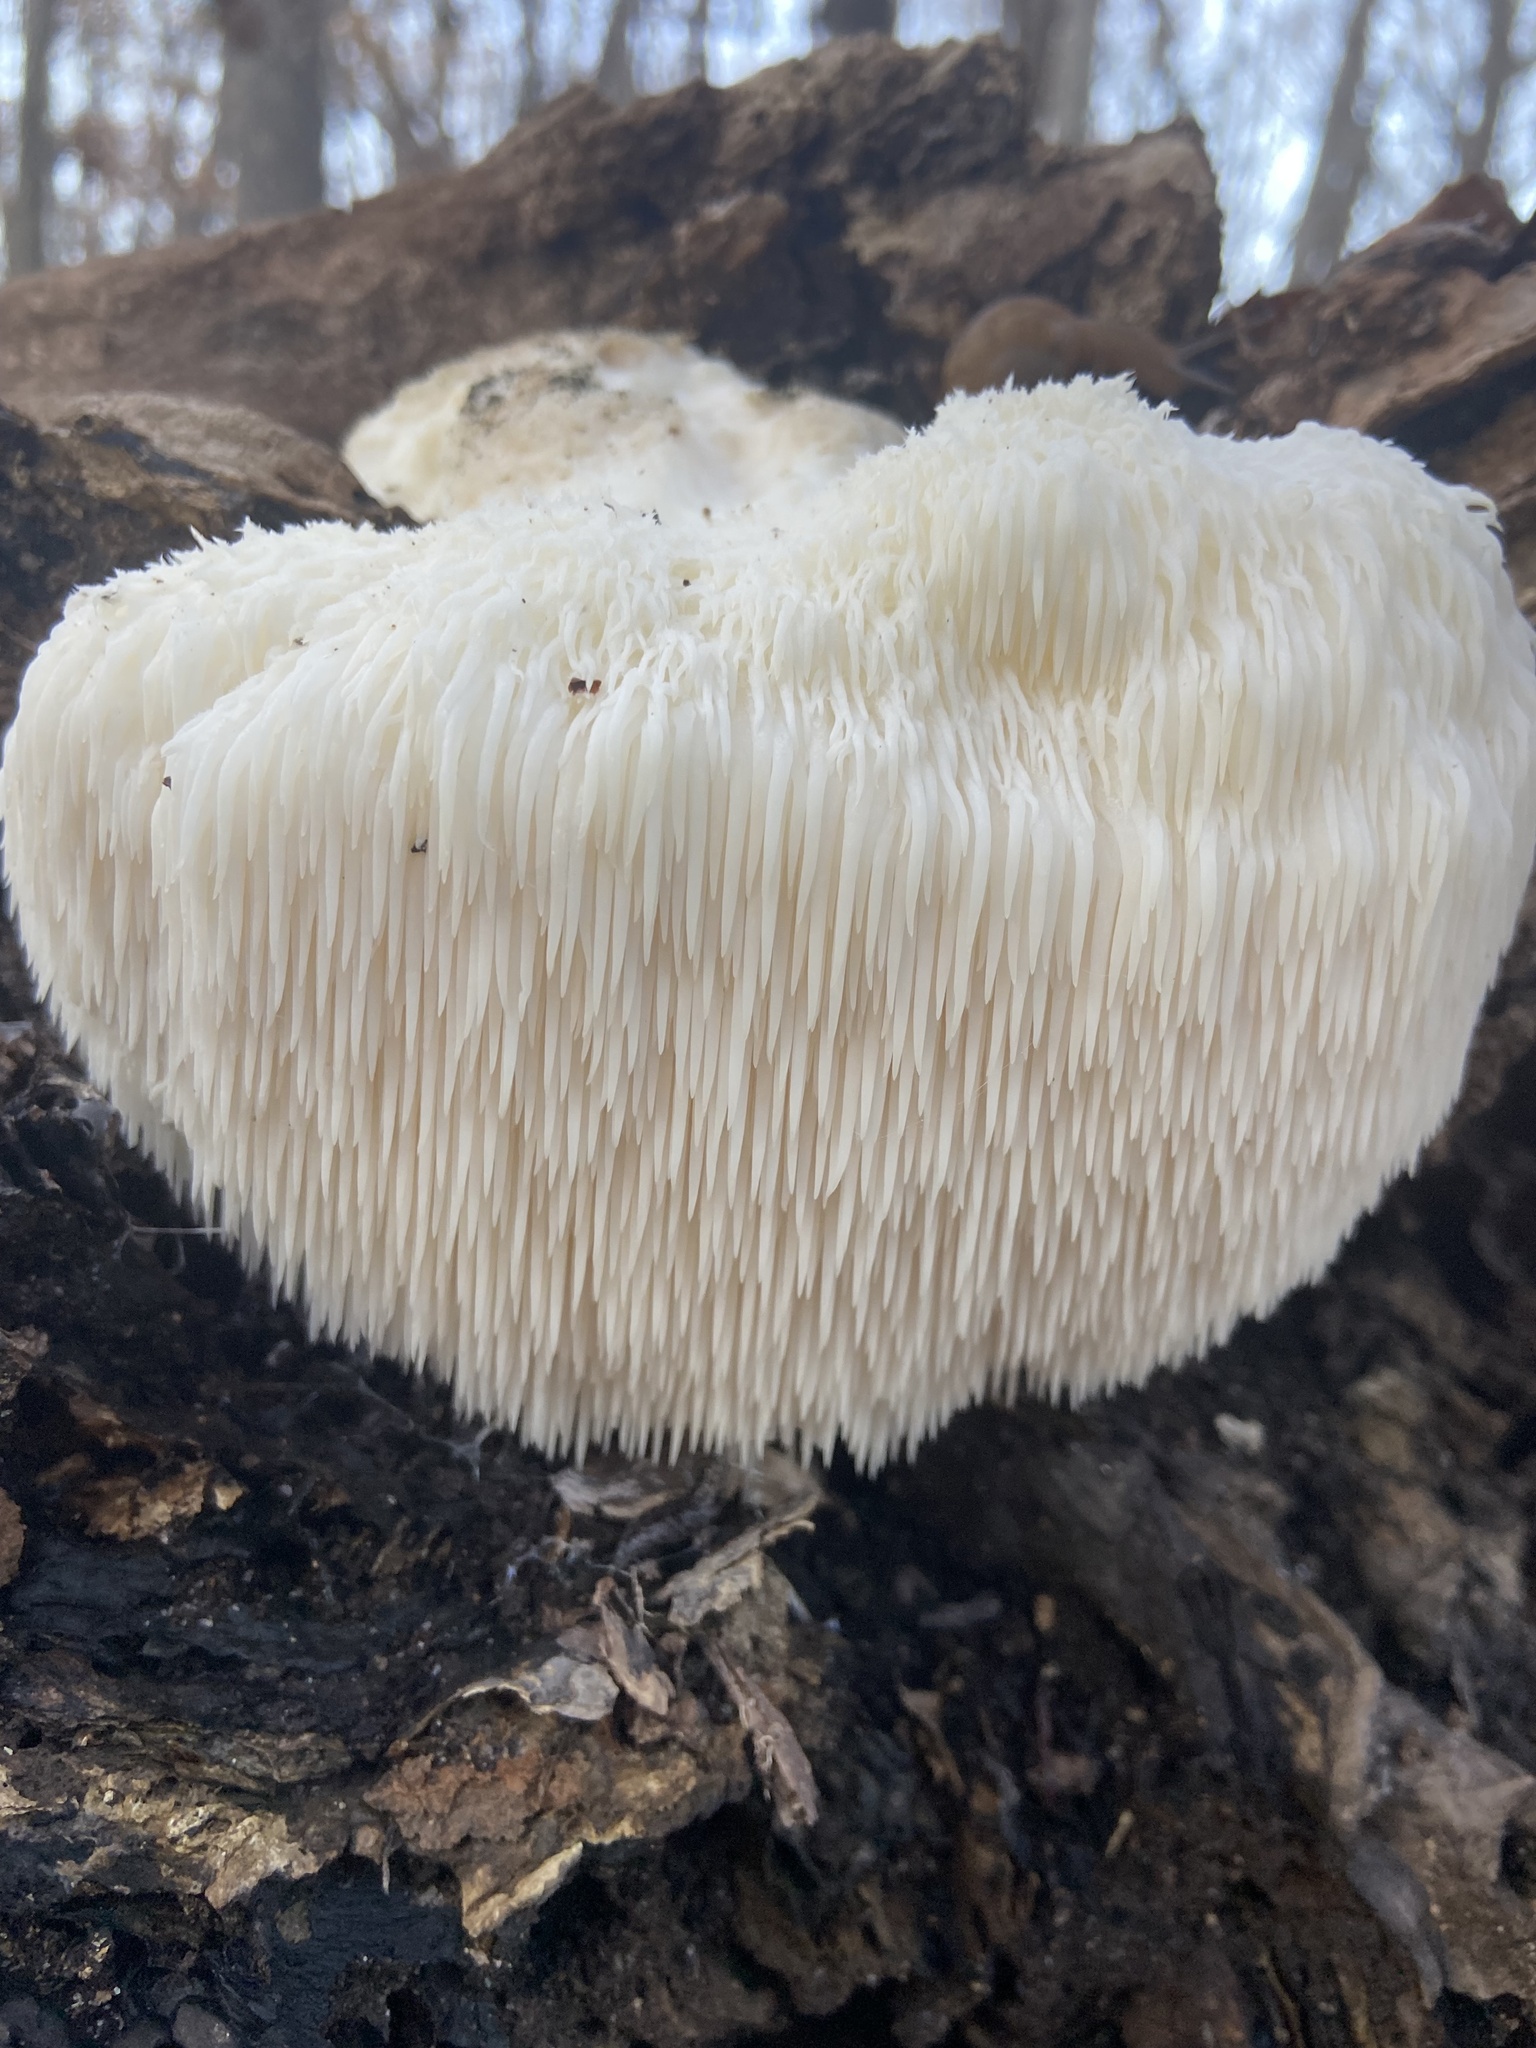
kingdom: Fungi
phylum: Basidiomycota
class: Agaricomycetes
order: Russulales
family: Hericiaceae
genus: Hericium
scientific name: Hericium erinaceus
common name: Bearded tooth
